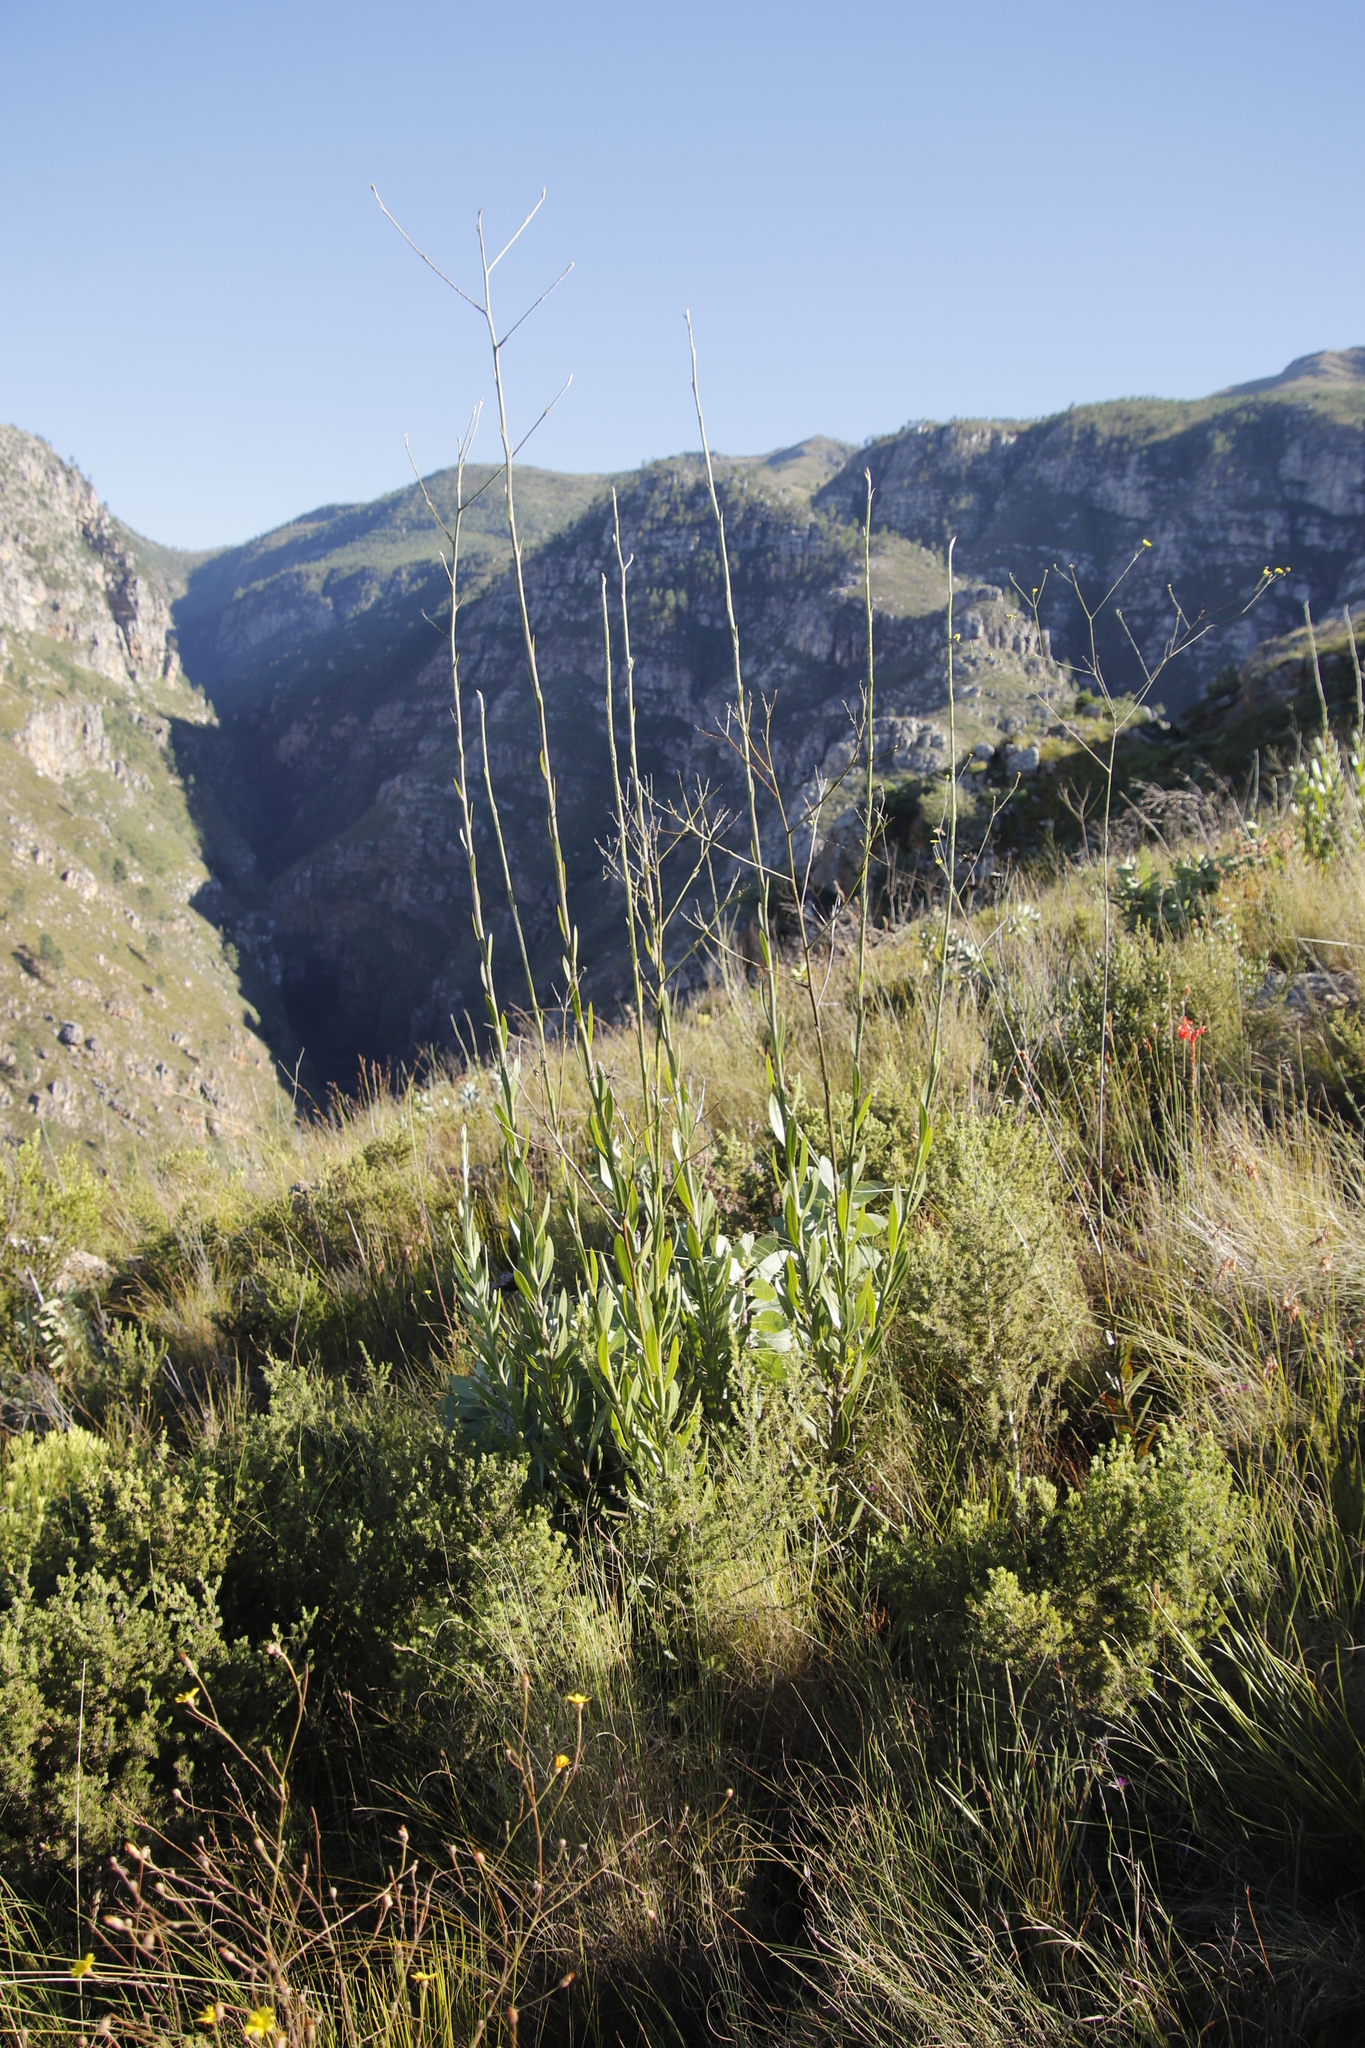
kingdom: Plantae
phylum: Tracheophyta
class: Magnoliopsida
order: Asterales
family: Asteraceae
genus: Othonna
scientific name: Othonna quinquedentata
